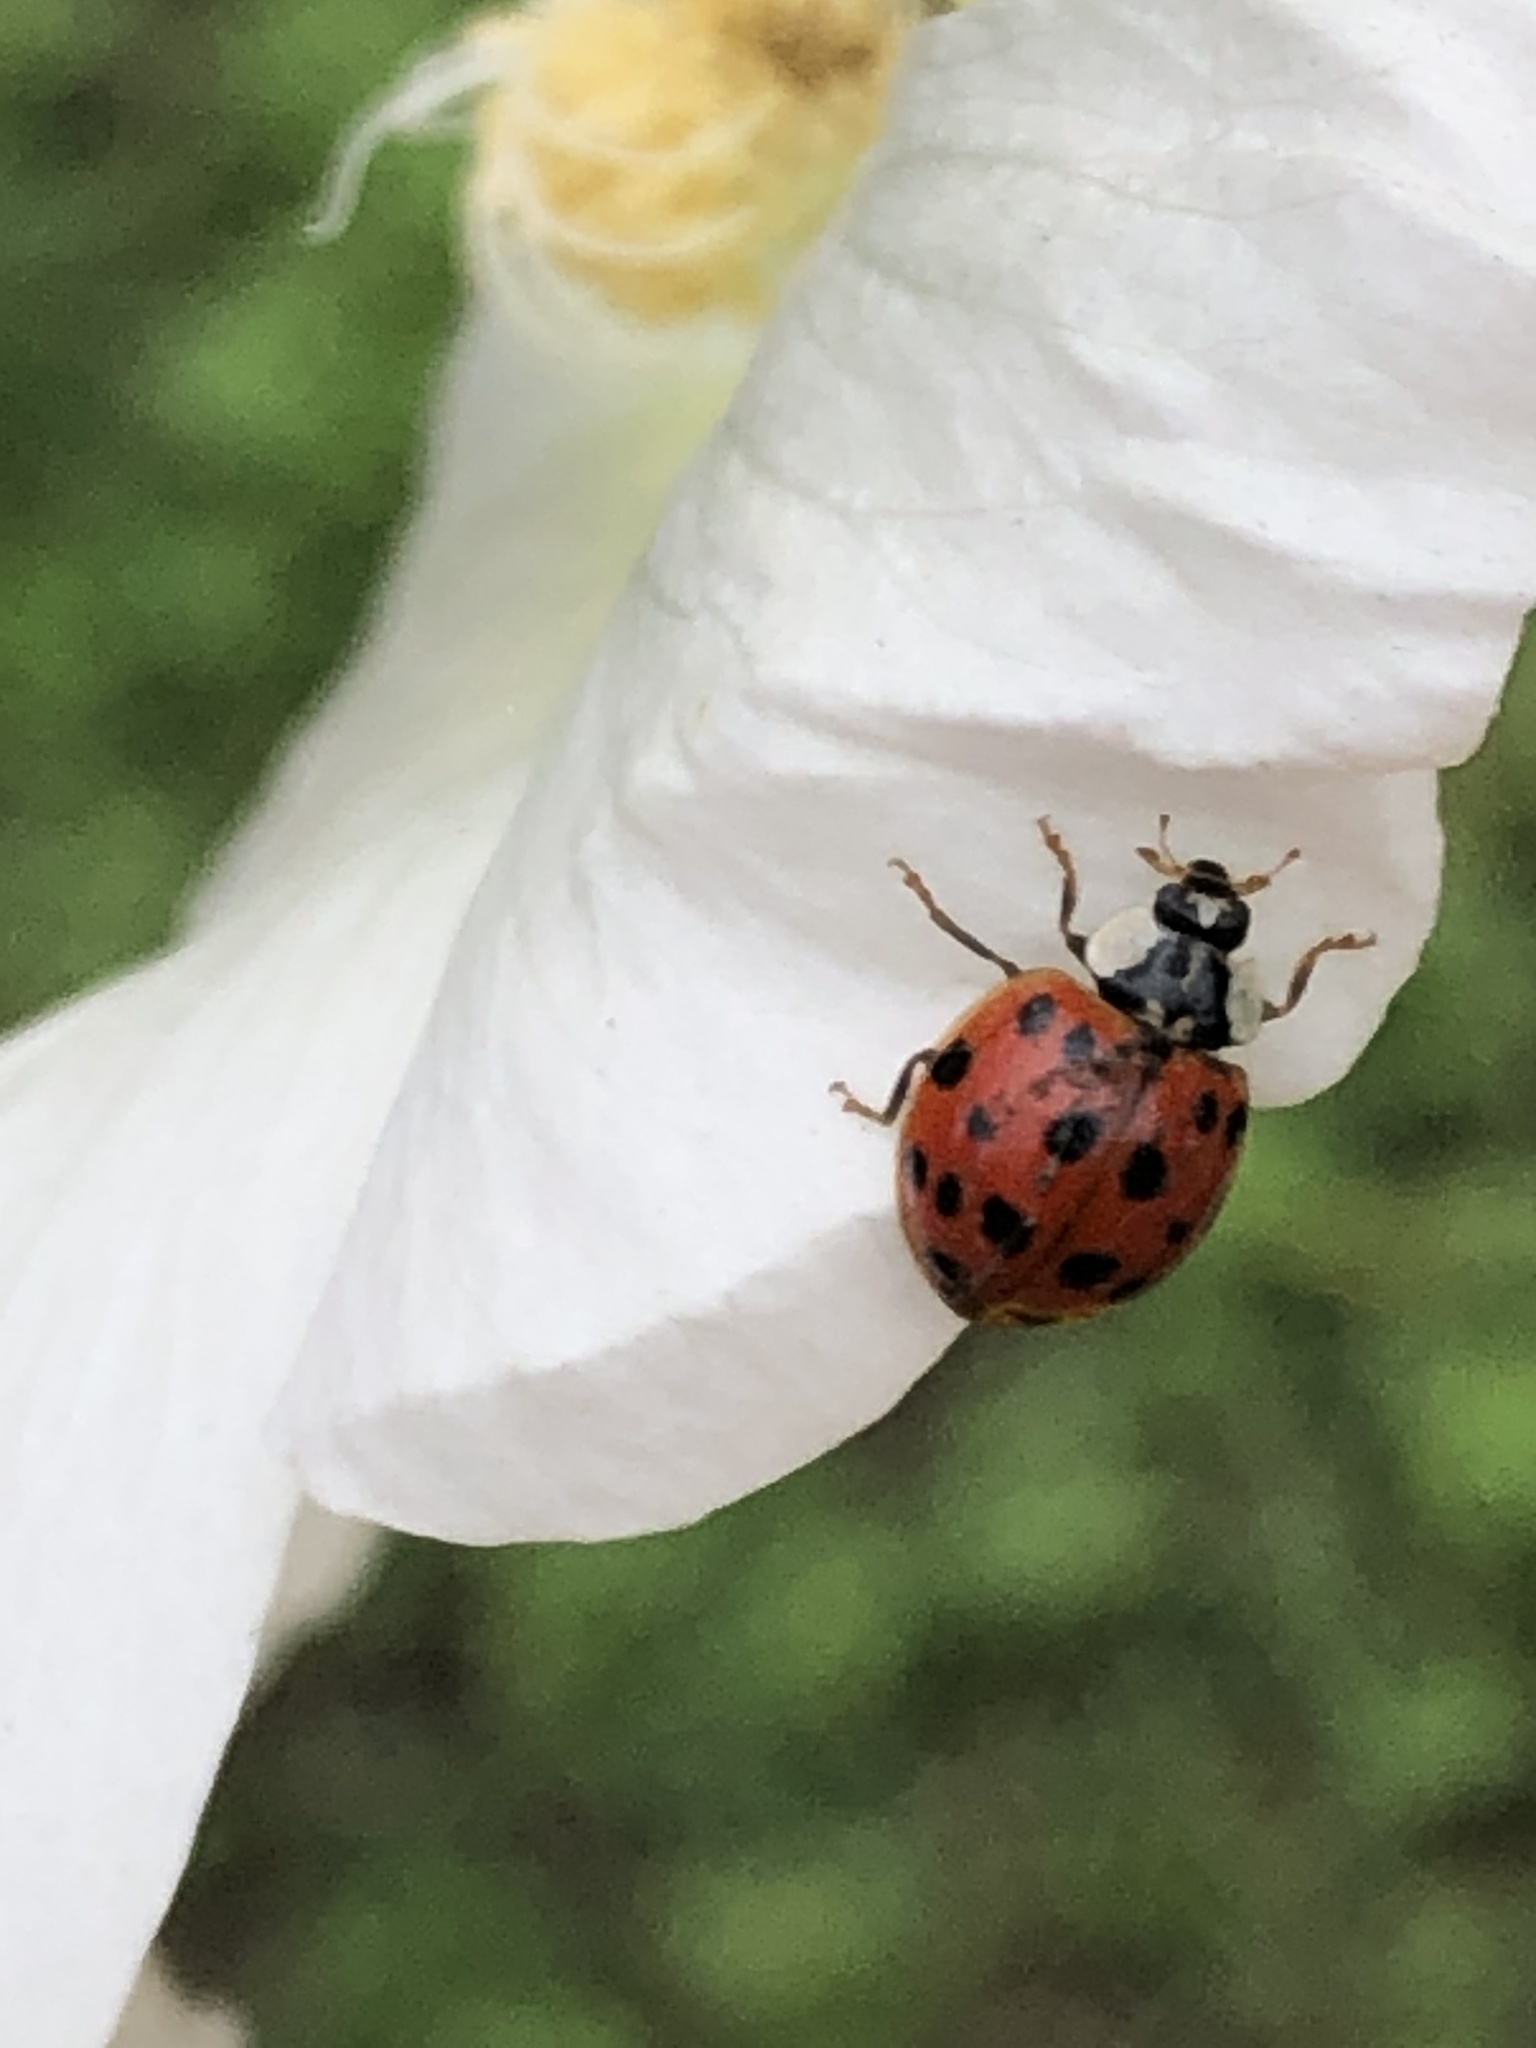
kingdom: Animalia
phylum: Arthropoda
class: Insecta
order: Coleoptera
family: Coccinellidae
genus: Harmonia
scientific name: Harmonia axyridis
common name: Harlequin ladybird
